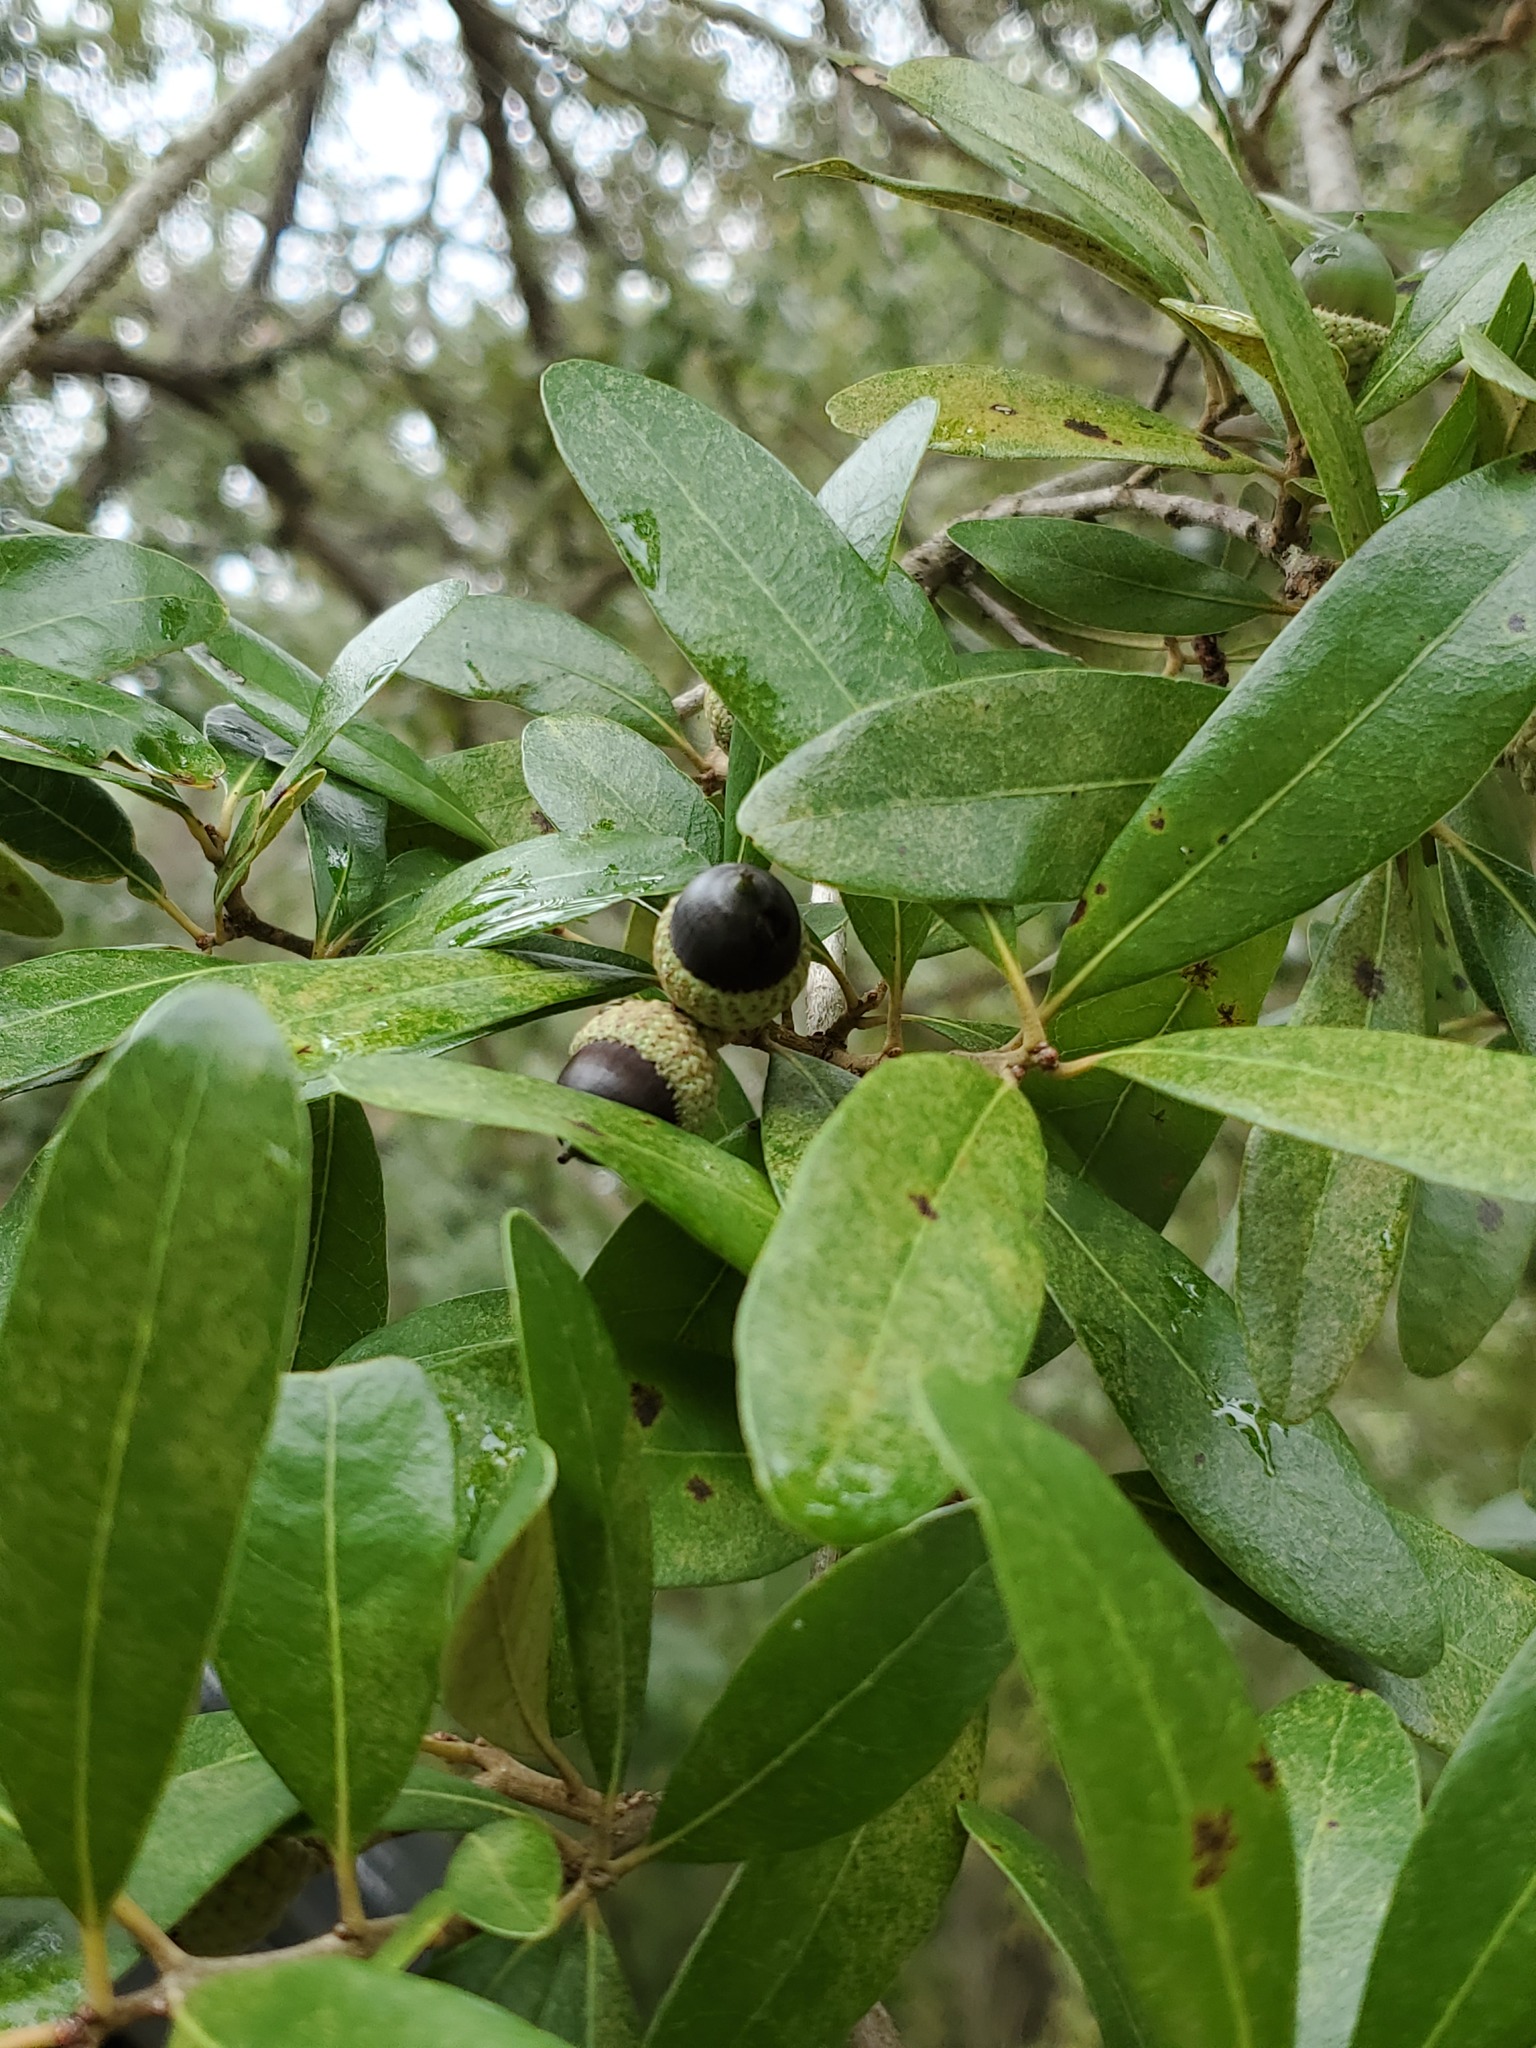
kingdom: Plantae
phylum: Tracheophyta
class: Magnoliopsida
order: Fagales
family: Fagaceae
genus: Quercus
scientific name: Quercus virginiana
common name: Southern live oak
